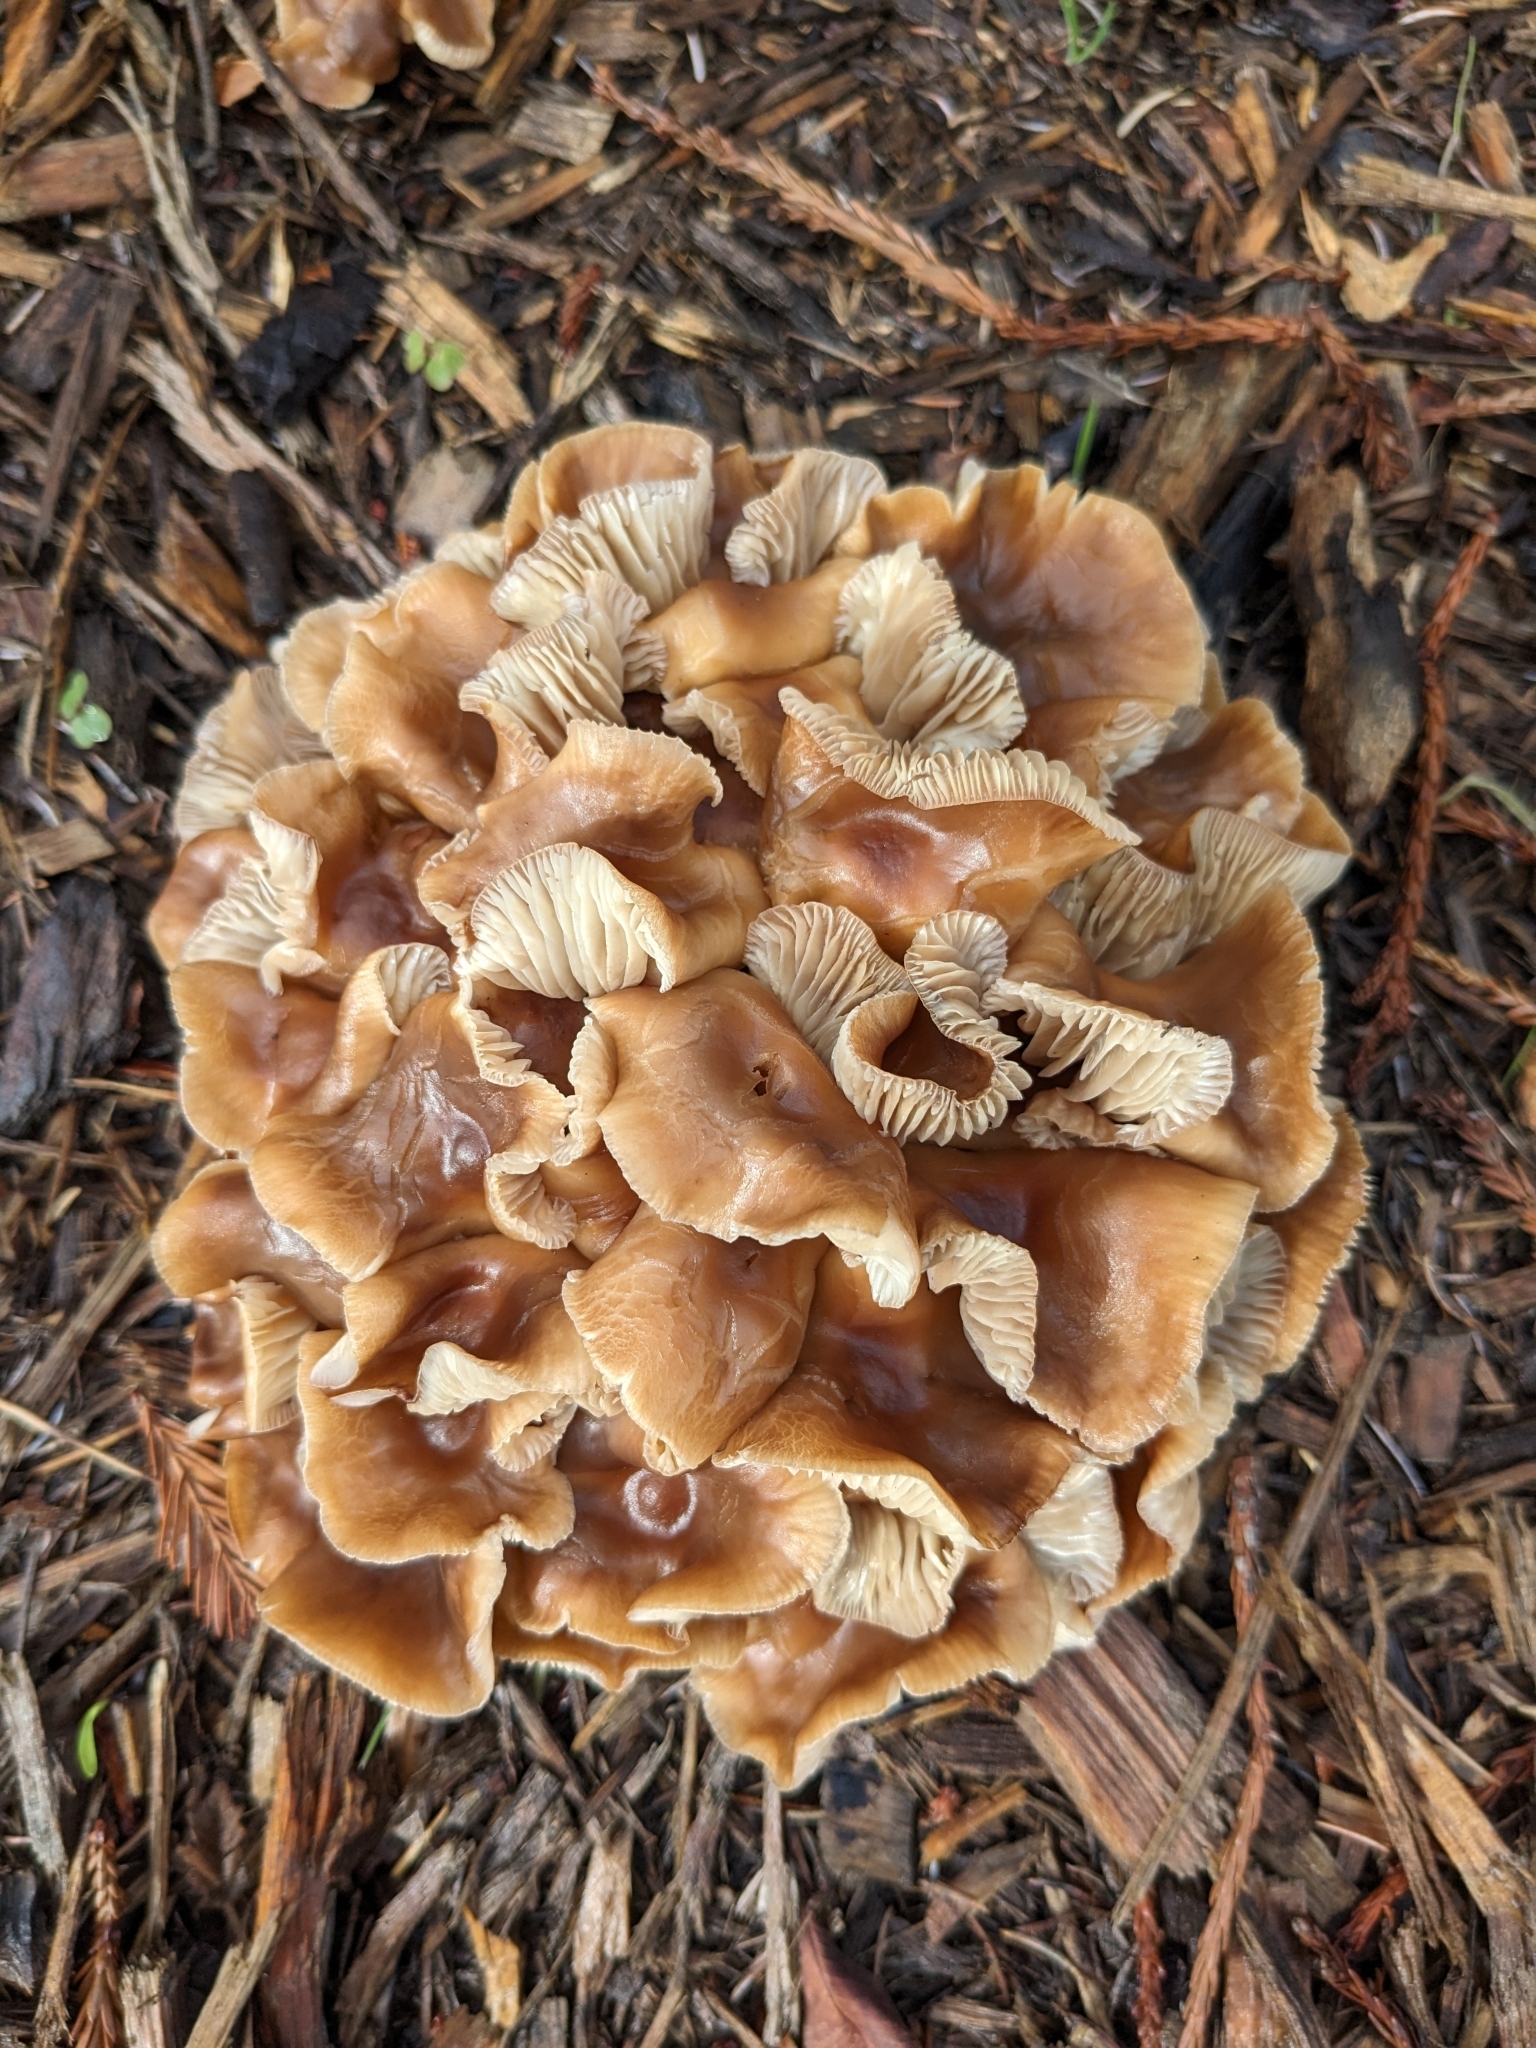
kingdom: Fungi
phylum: Basidiomycota
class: Agaricomycetes
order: Agaricales
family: Omphalotaceae
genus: Gymnopus
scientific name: Gymnopus brassicolens
